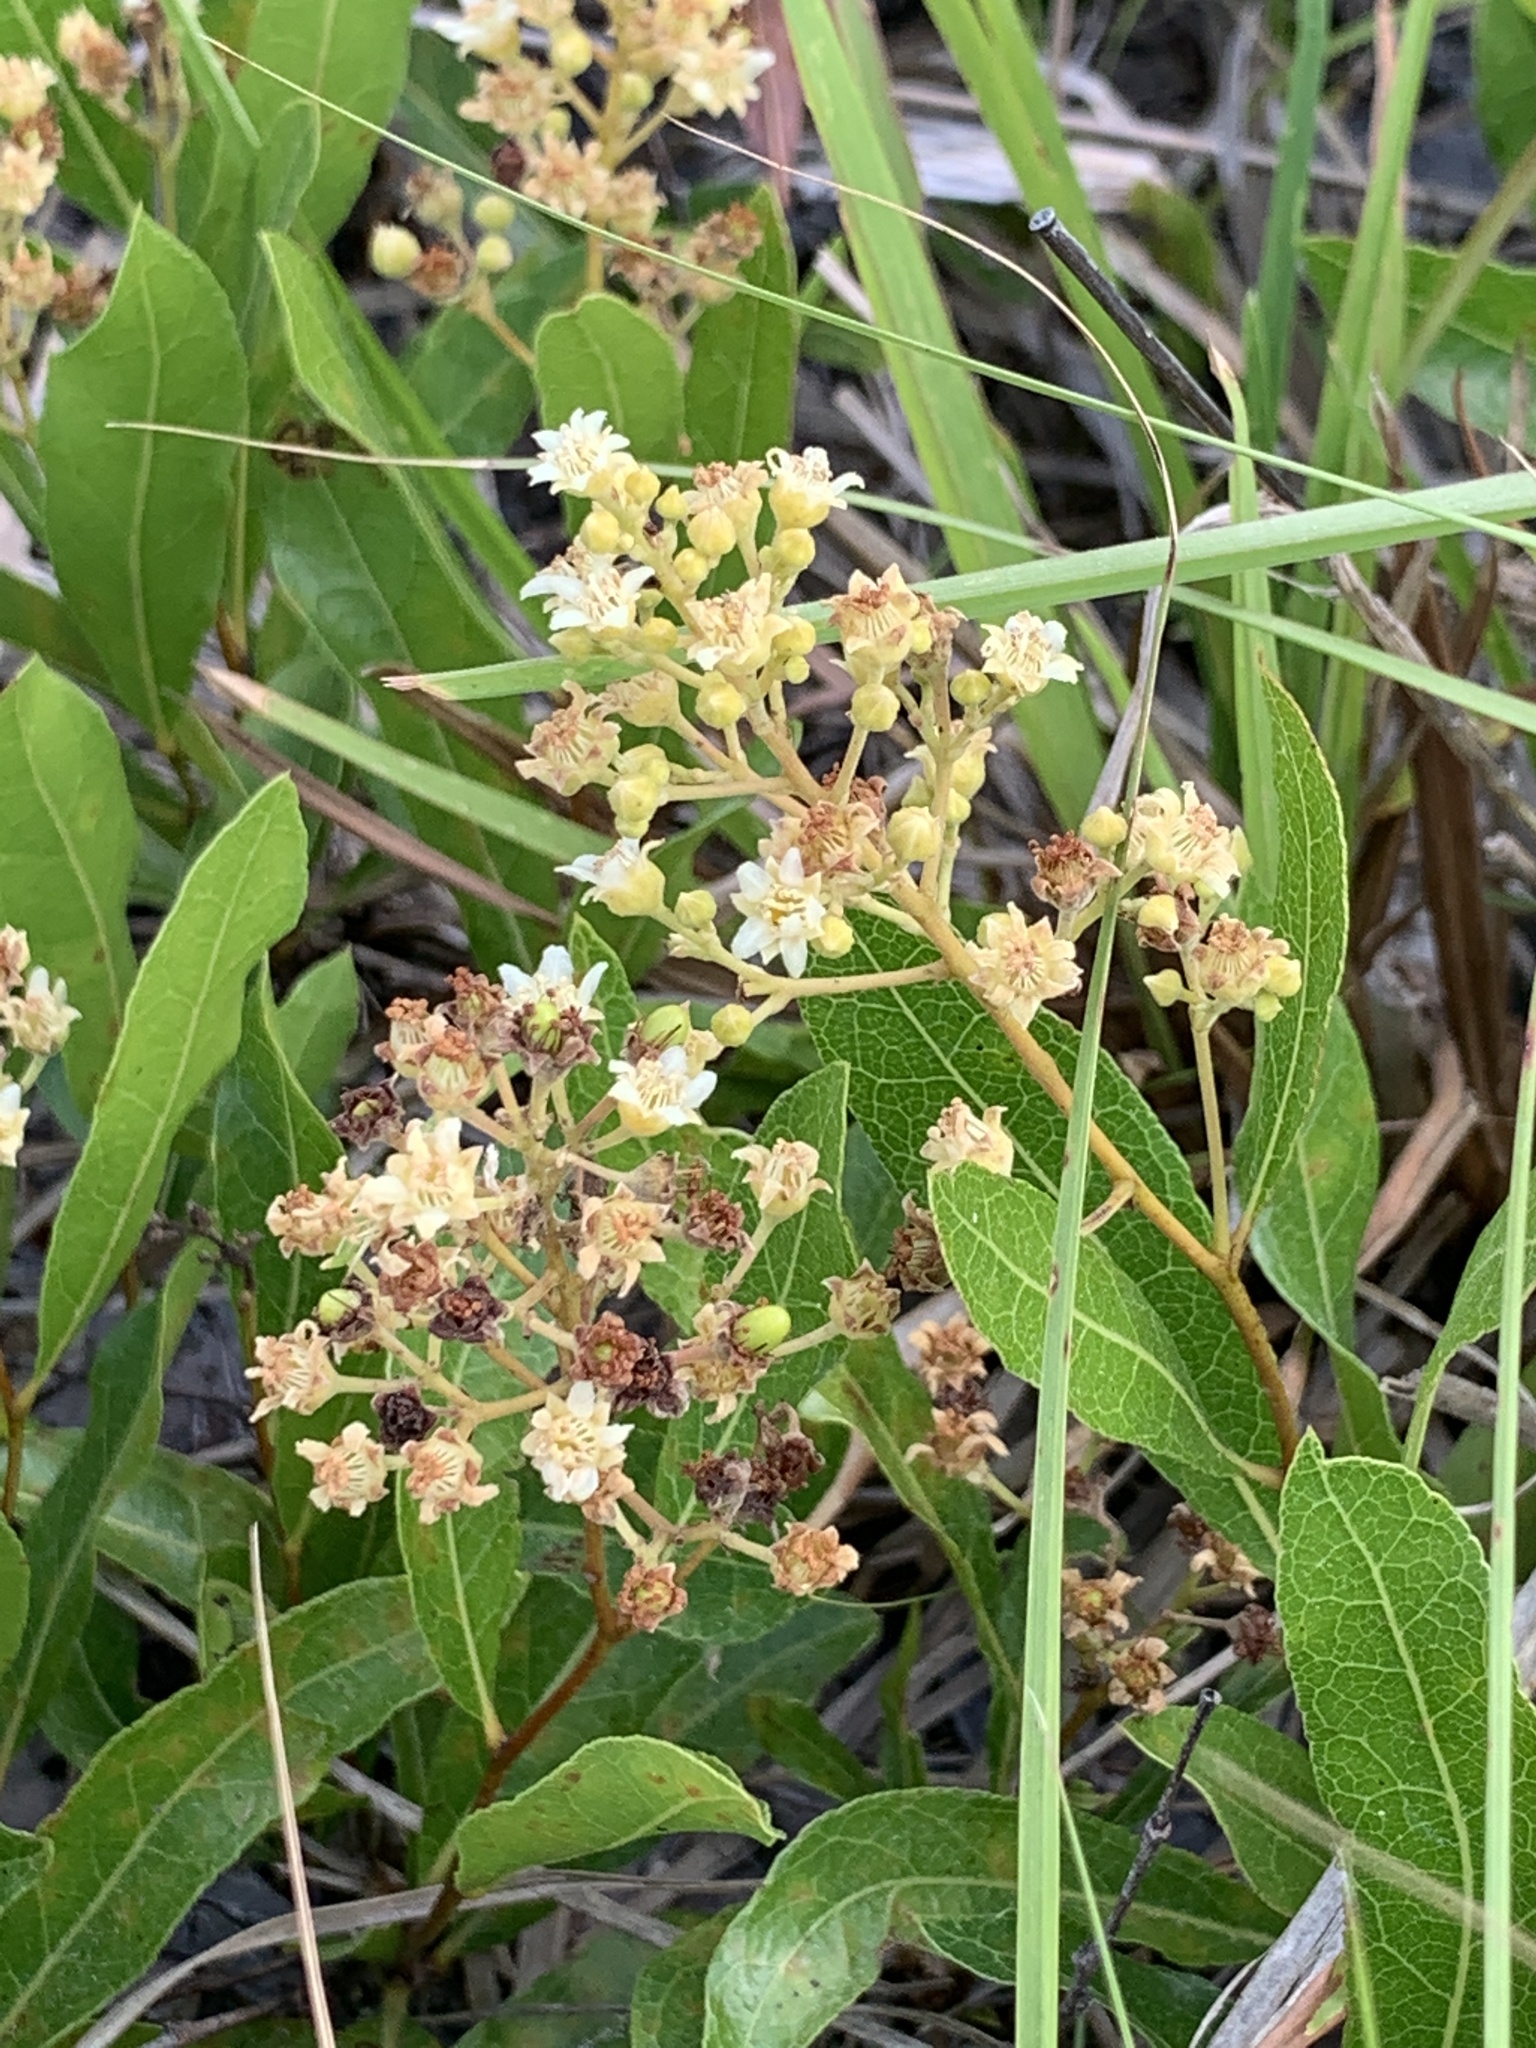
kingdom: Plantae
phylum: Tracheophyta
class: Magnoliopsida
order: Malpighiales
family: Chrysobalanaceae
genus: Geobalanus
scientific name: Geobalanus oblongifolius
